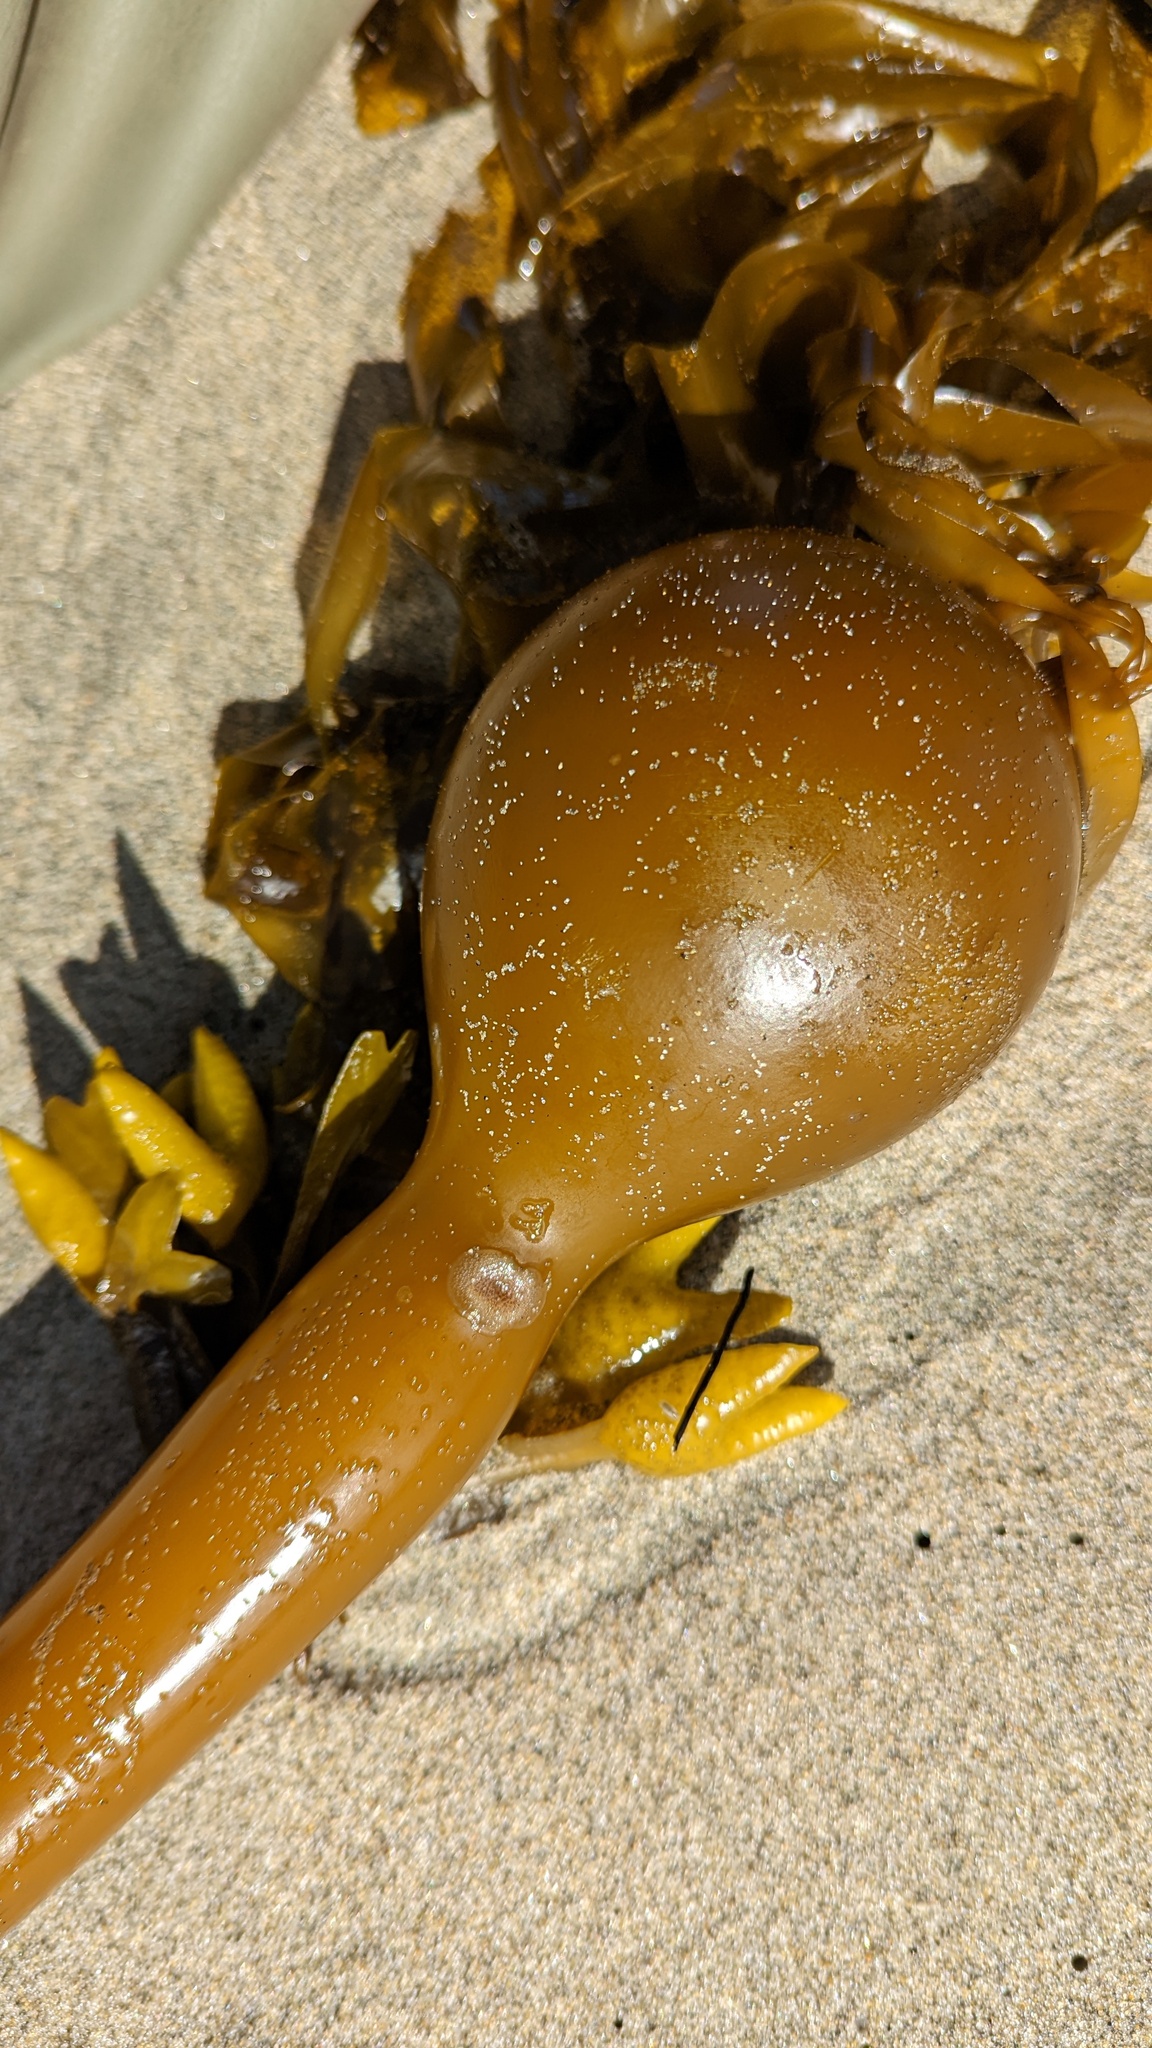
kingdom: Animalia
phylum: Bryozoa
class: Gymnolaemata
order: Cheilostomatida
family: Membraniporidae
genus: Membranipora
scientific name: Membranipora membranacea
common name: Sea mat
